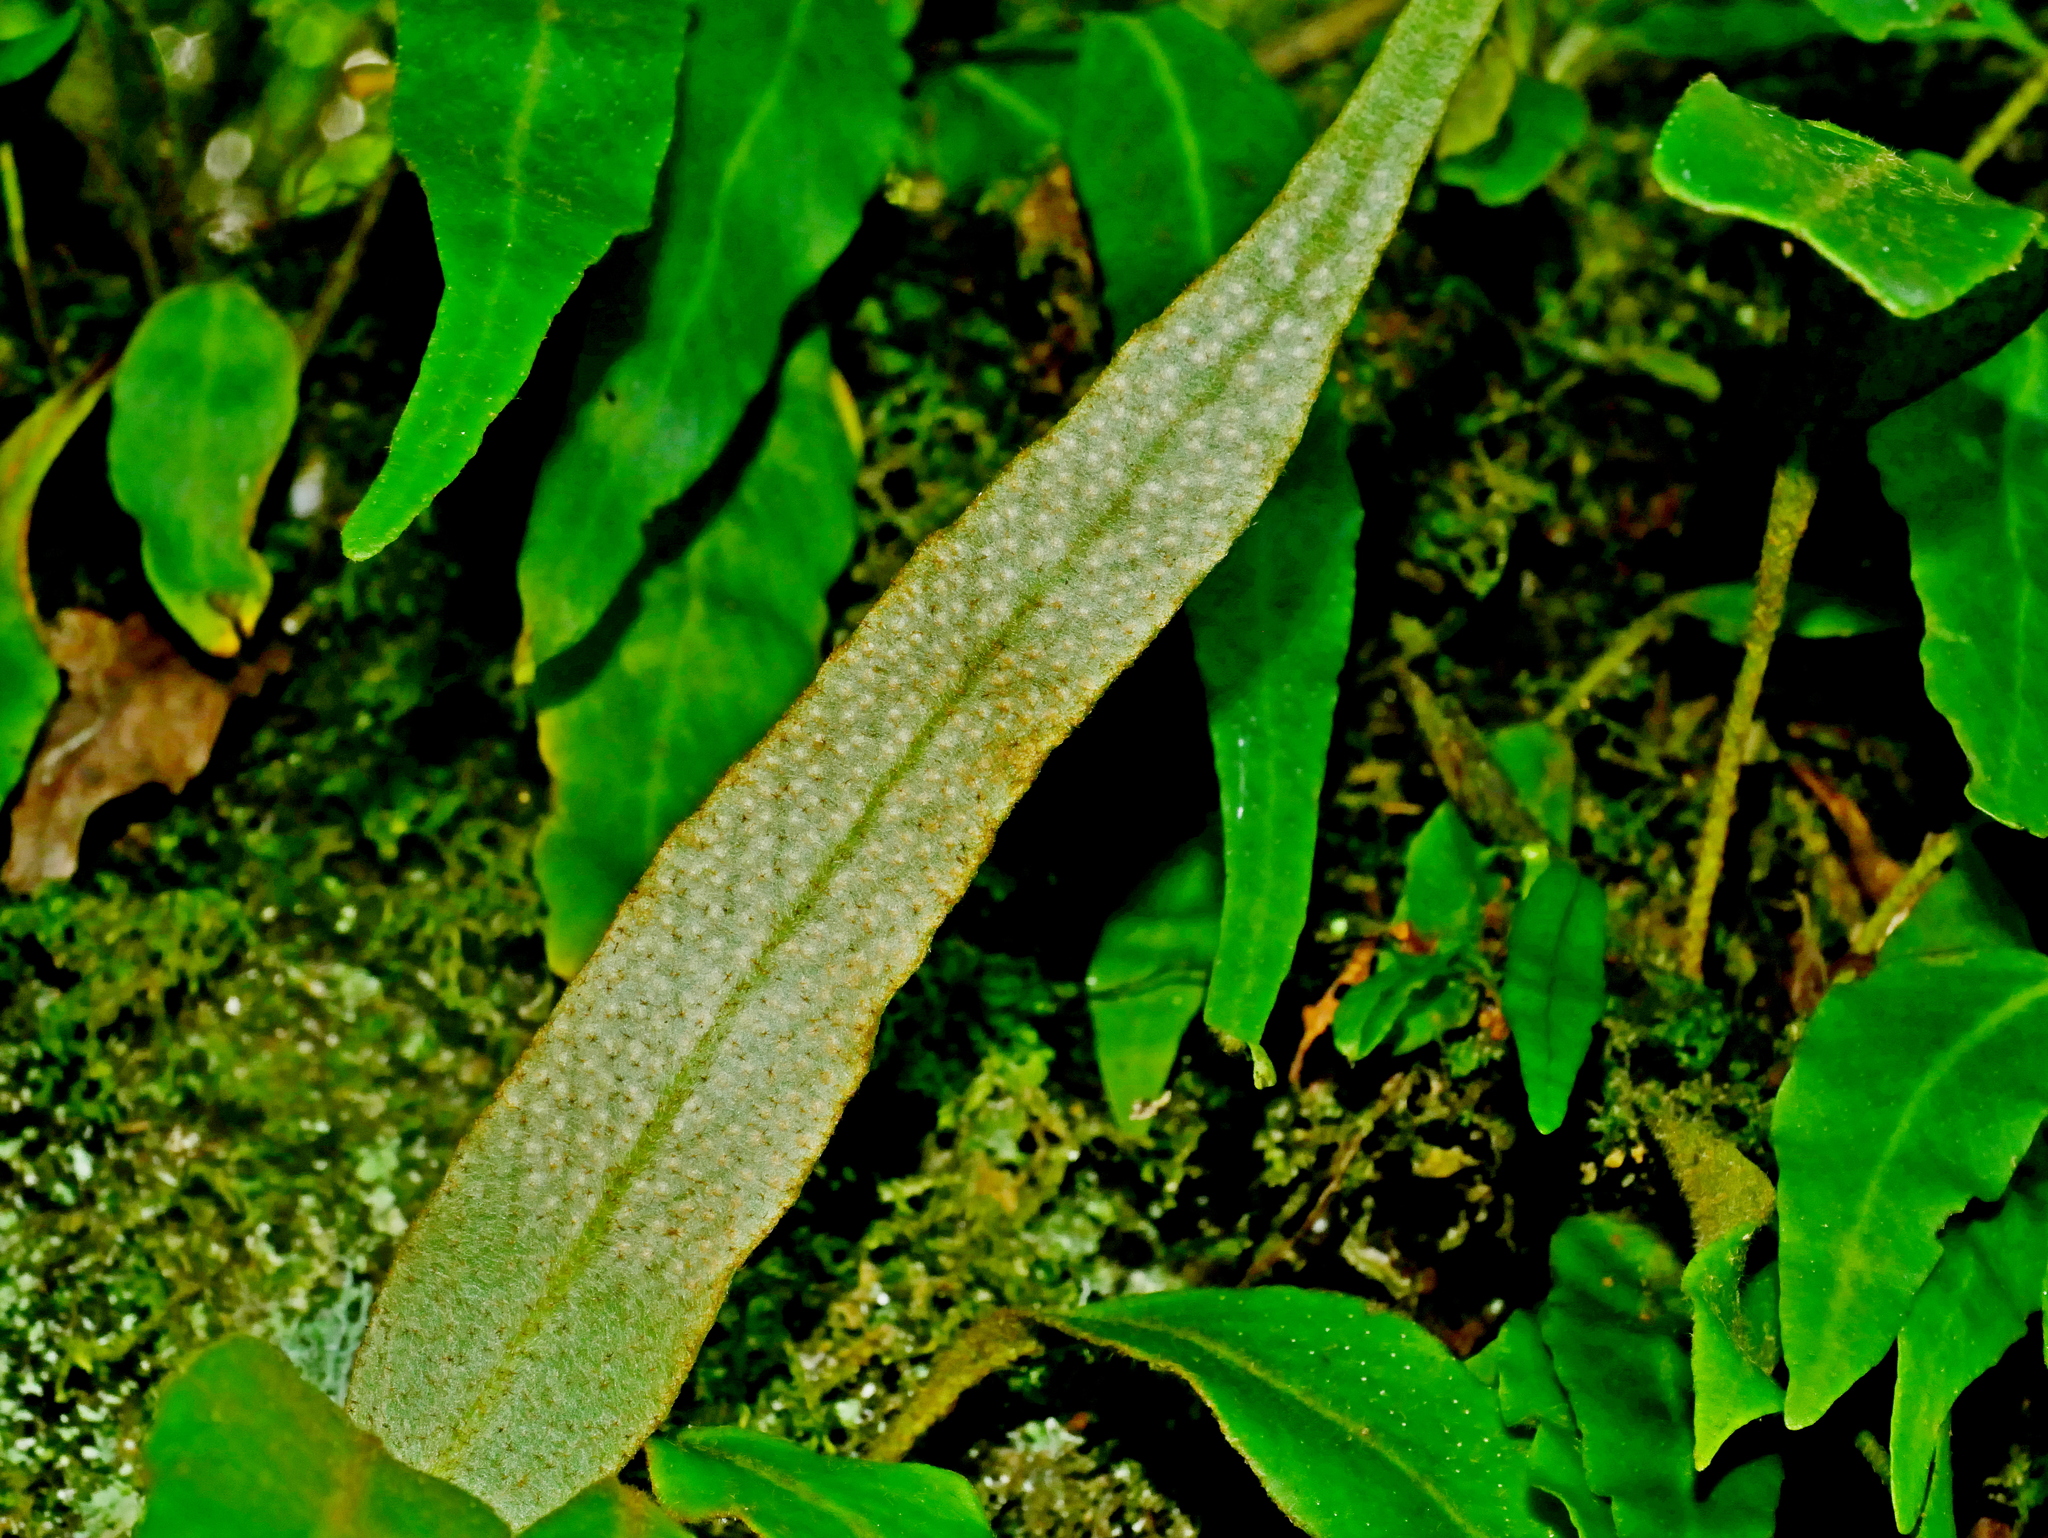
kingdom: Plantae
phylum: Tracheophyta
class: Polypodiopsida
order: Polypodiales
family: Polypodiaceae
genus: Pyrrosia
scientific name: Pyrrosia porosa
